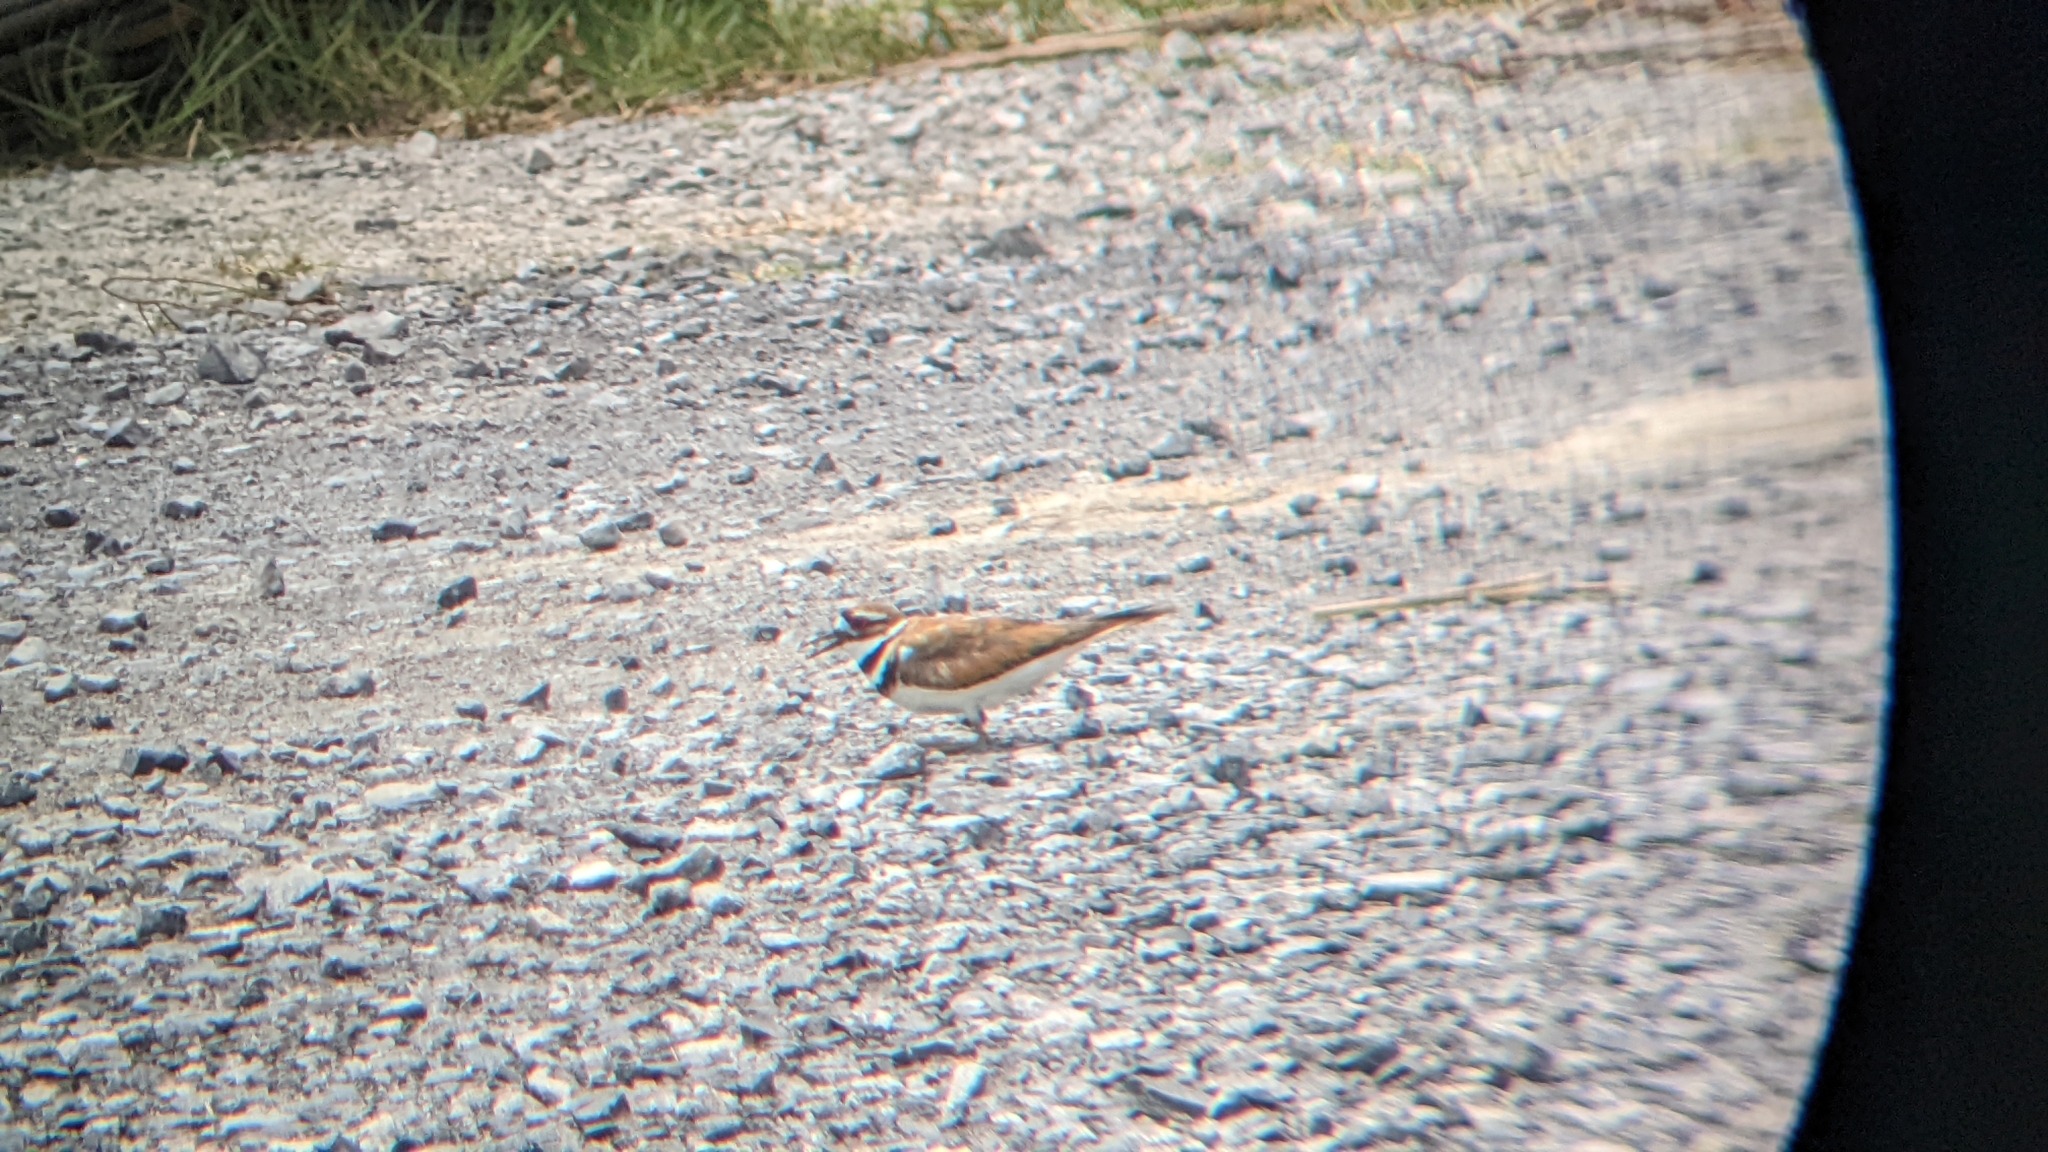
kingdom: Animalia
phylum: Chordata
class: Aves
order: Charadriiformes
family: Charadriidae
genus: Charadrius
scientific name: Charadrius vociferus
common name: Killdeer
